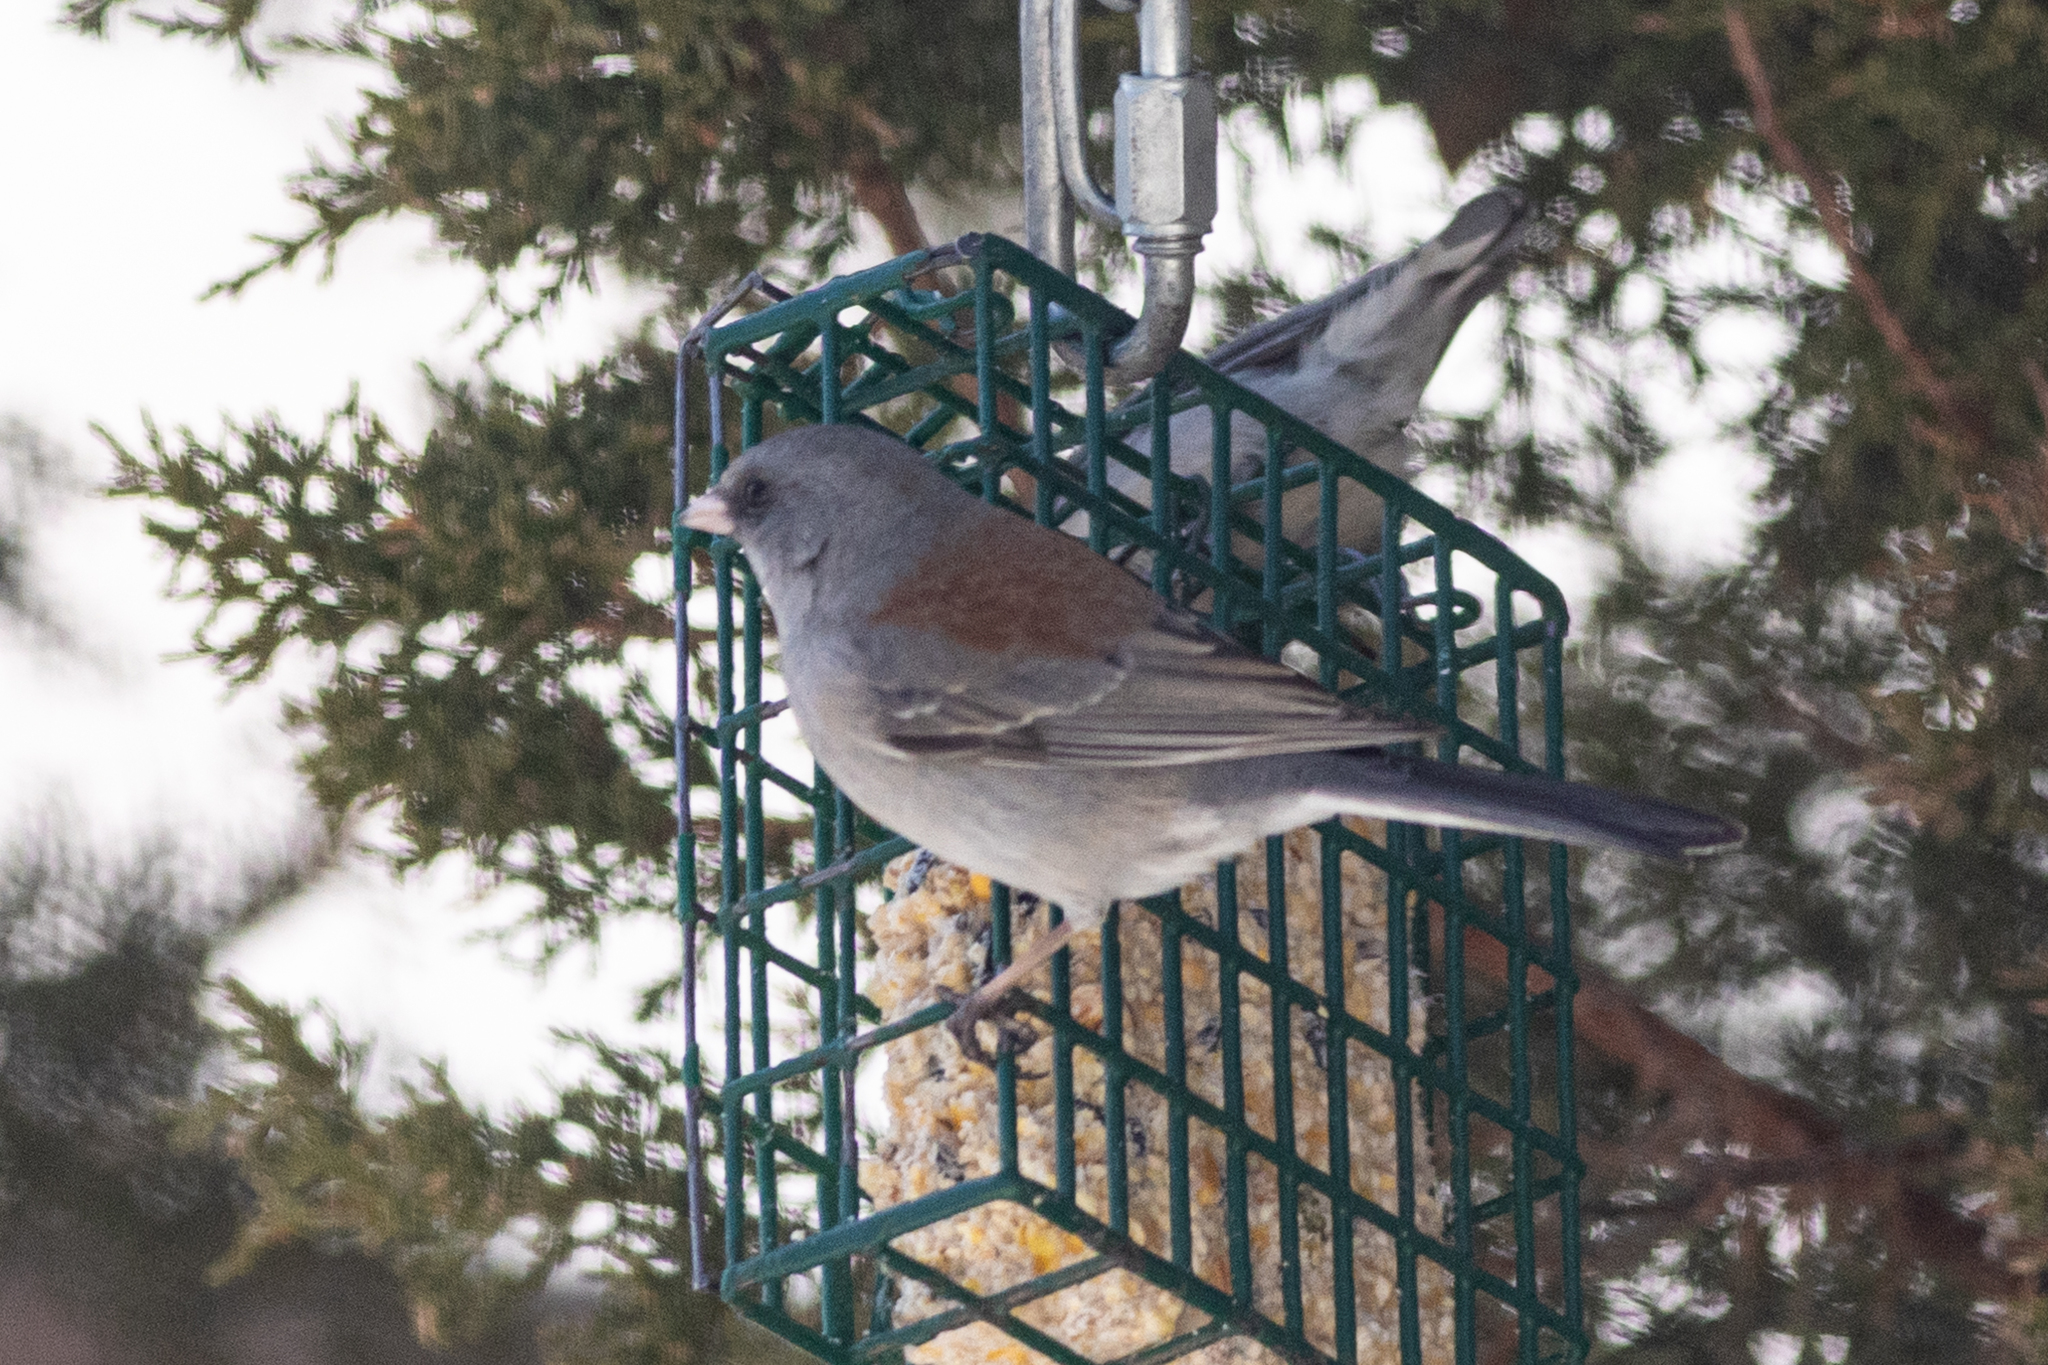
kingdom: Animalia
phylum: Chordata
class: Aves
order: Passeriformes
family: Passerellidae
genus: Junco
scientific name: Junco hyemalis
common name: Dark-eyed junco
